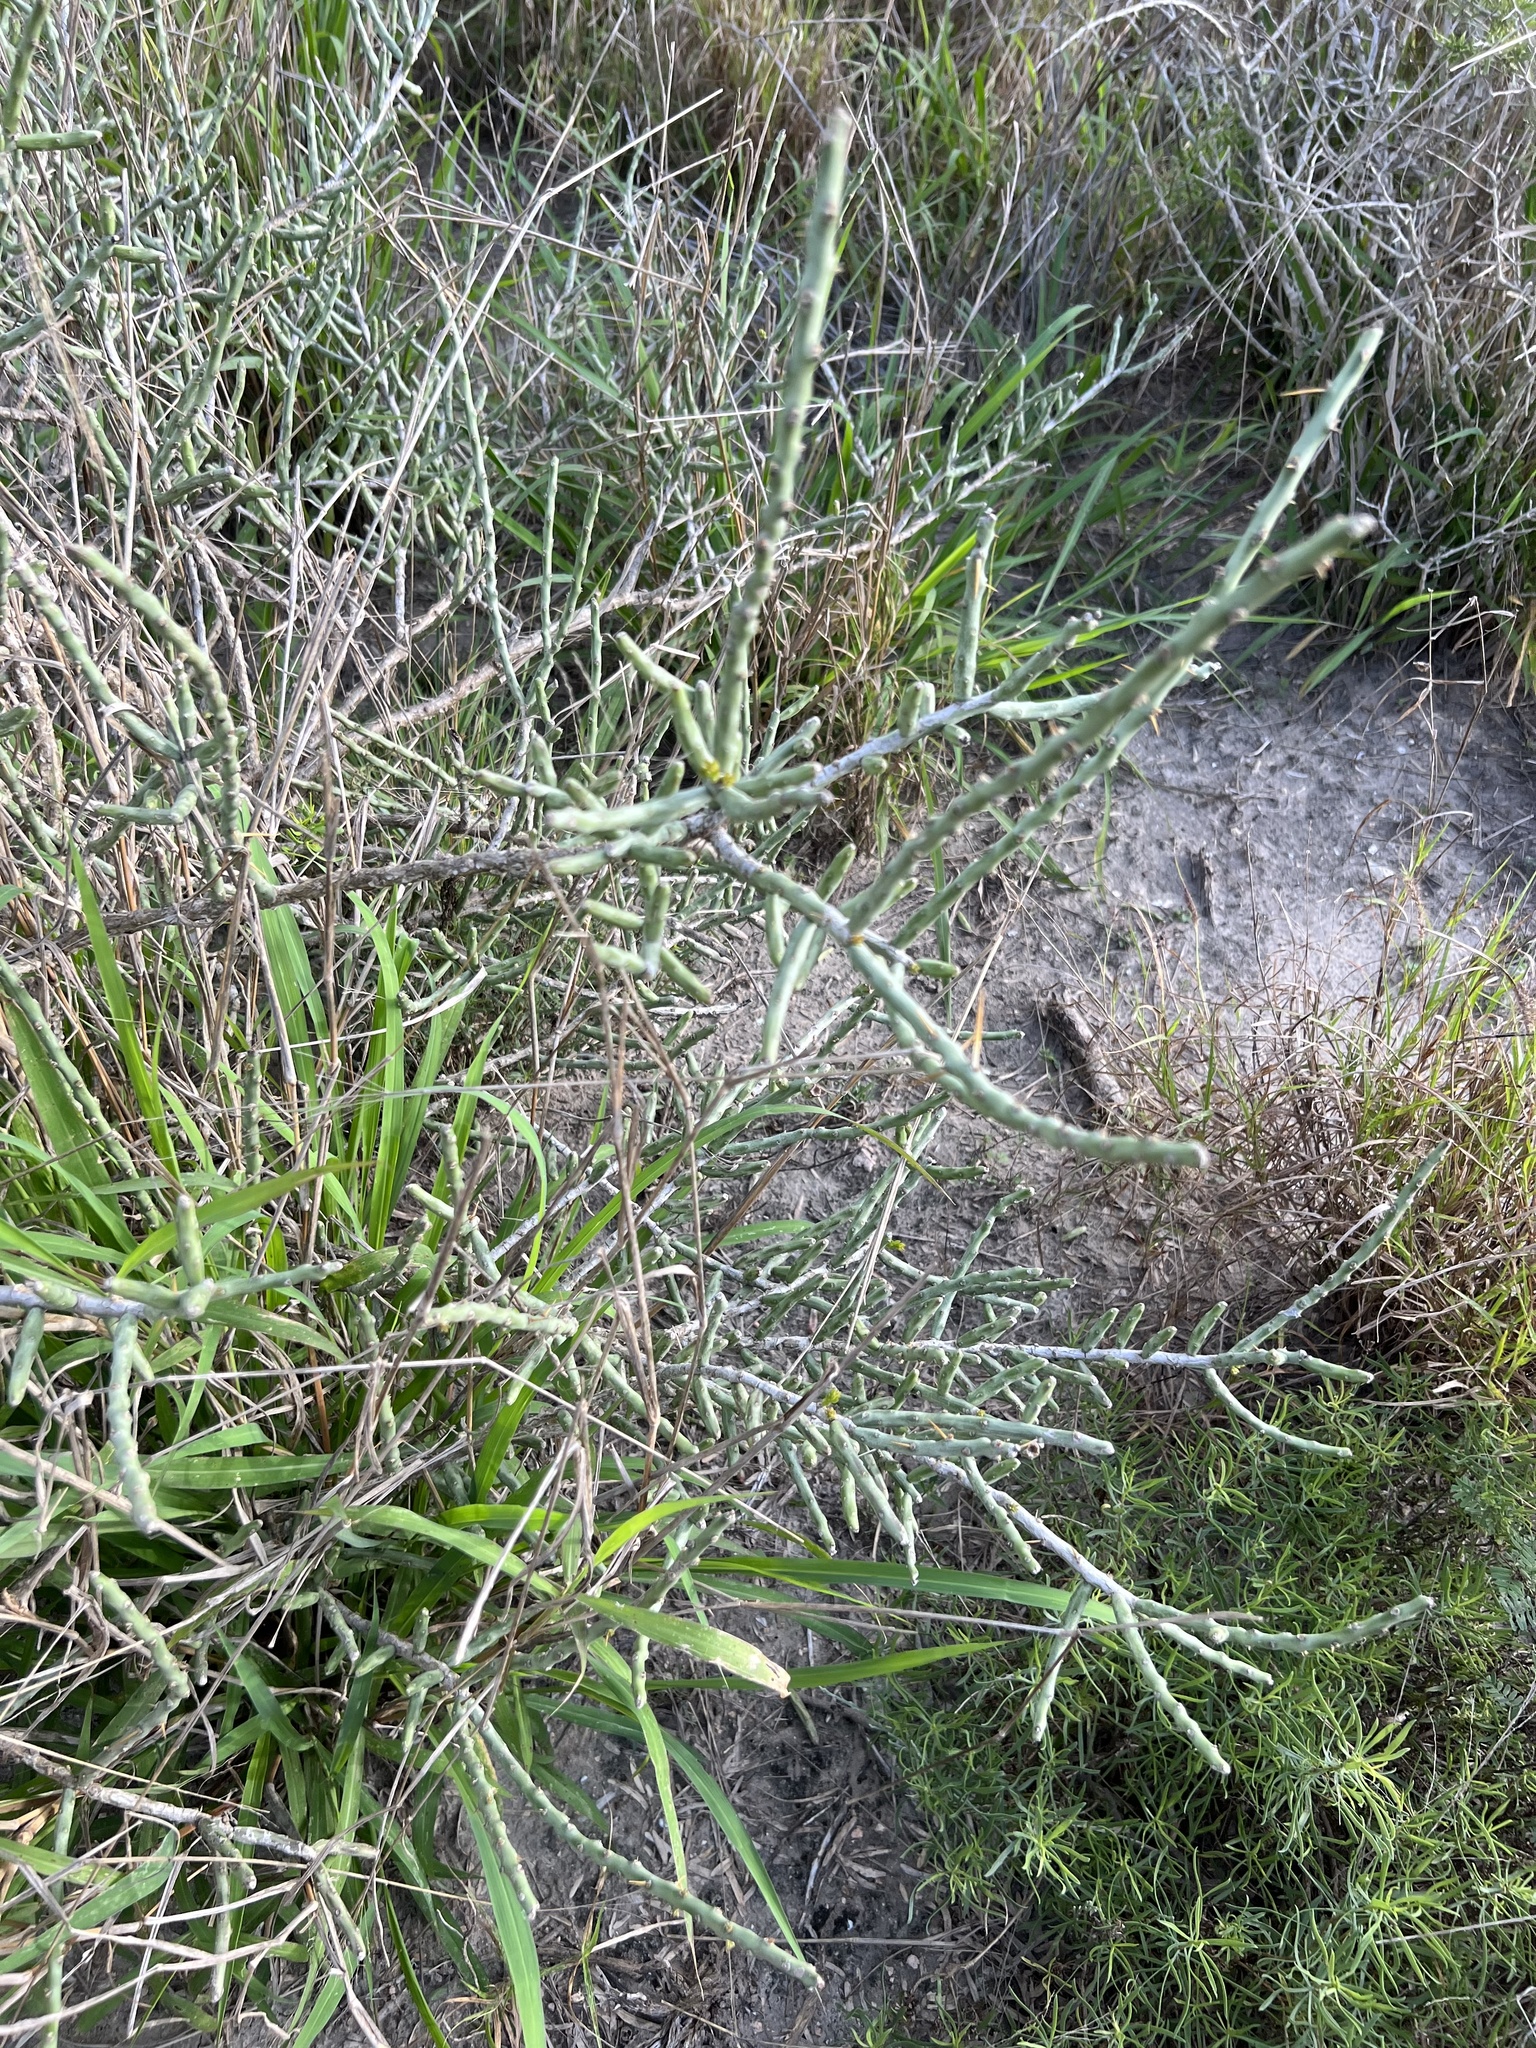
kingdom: Plantae
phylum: Tracheophyta
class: Magnoliopsida
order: Caryophyllales
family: Cactaceae
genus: Cylindropuntia
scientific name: Cylindropuntia leptocaulis
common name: Christmas cactus
